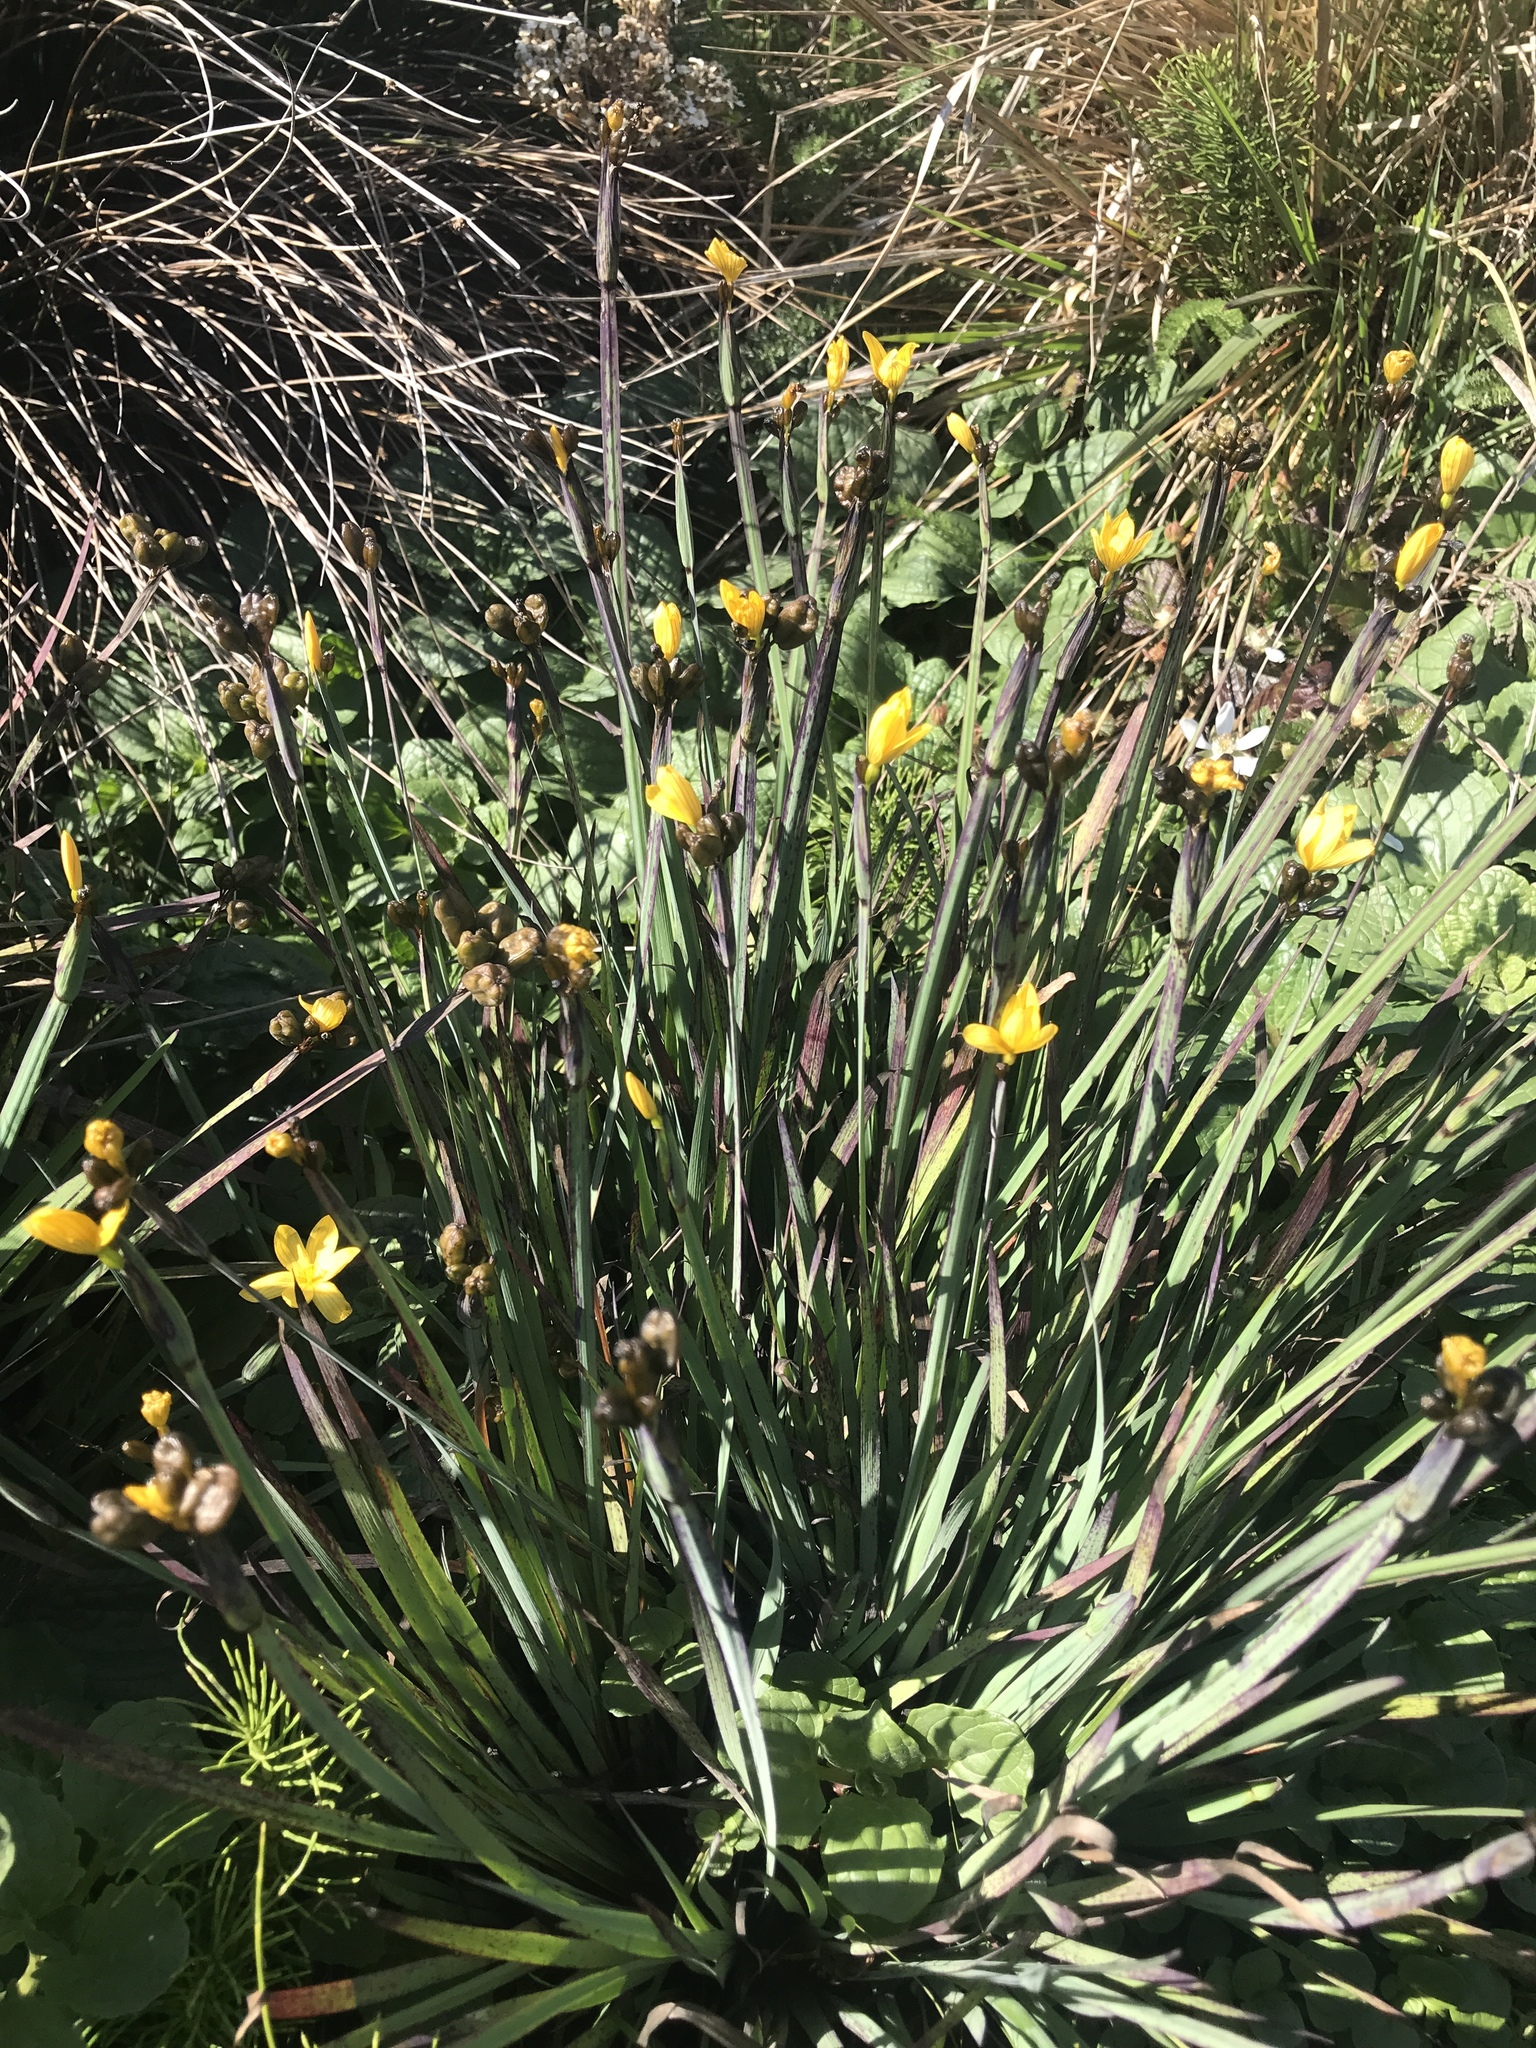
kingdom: Plantae
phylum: Tracheophyta
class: Liliopsida
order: Asparagales
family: Iridaceae
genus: Sisyrinchium
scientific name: Sisyrinchium californicum
